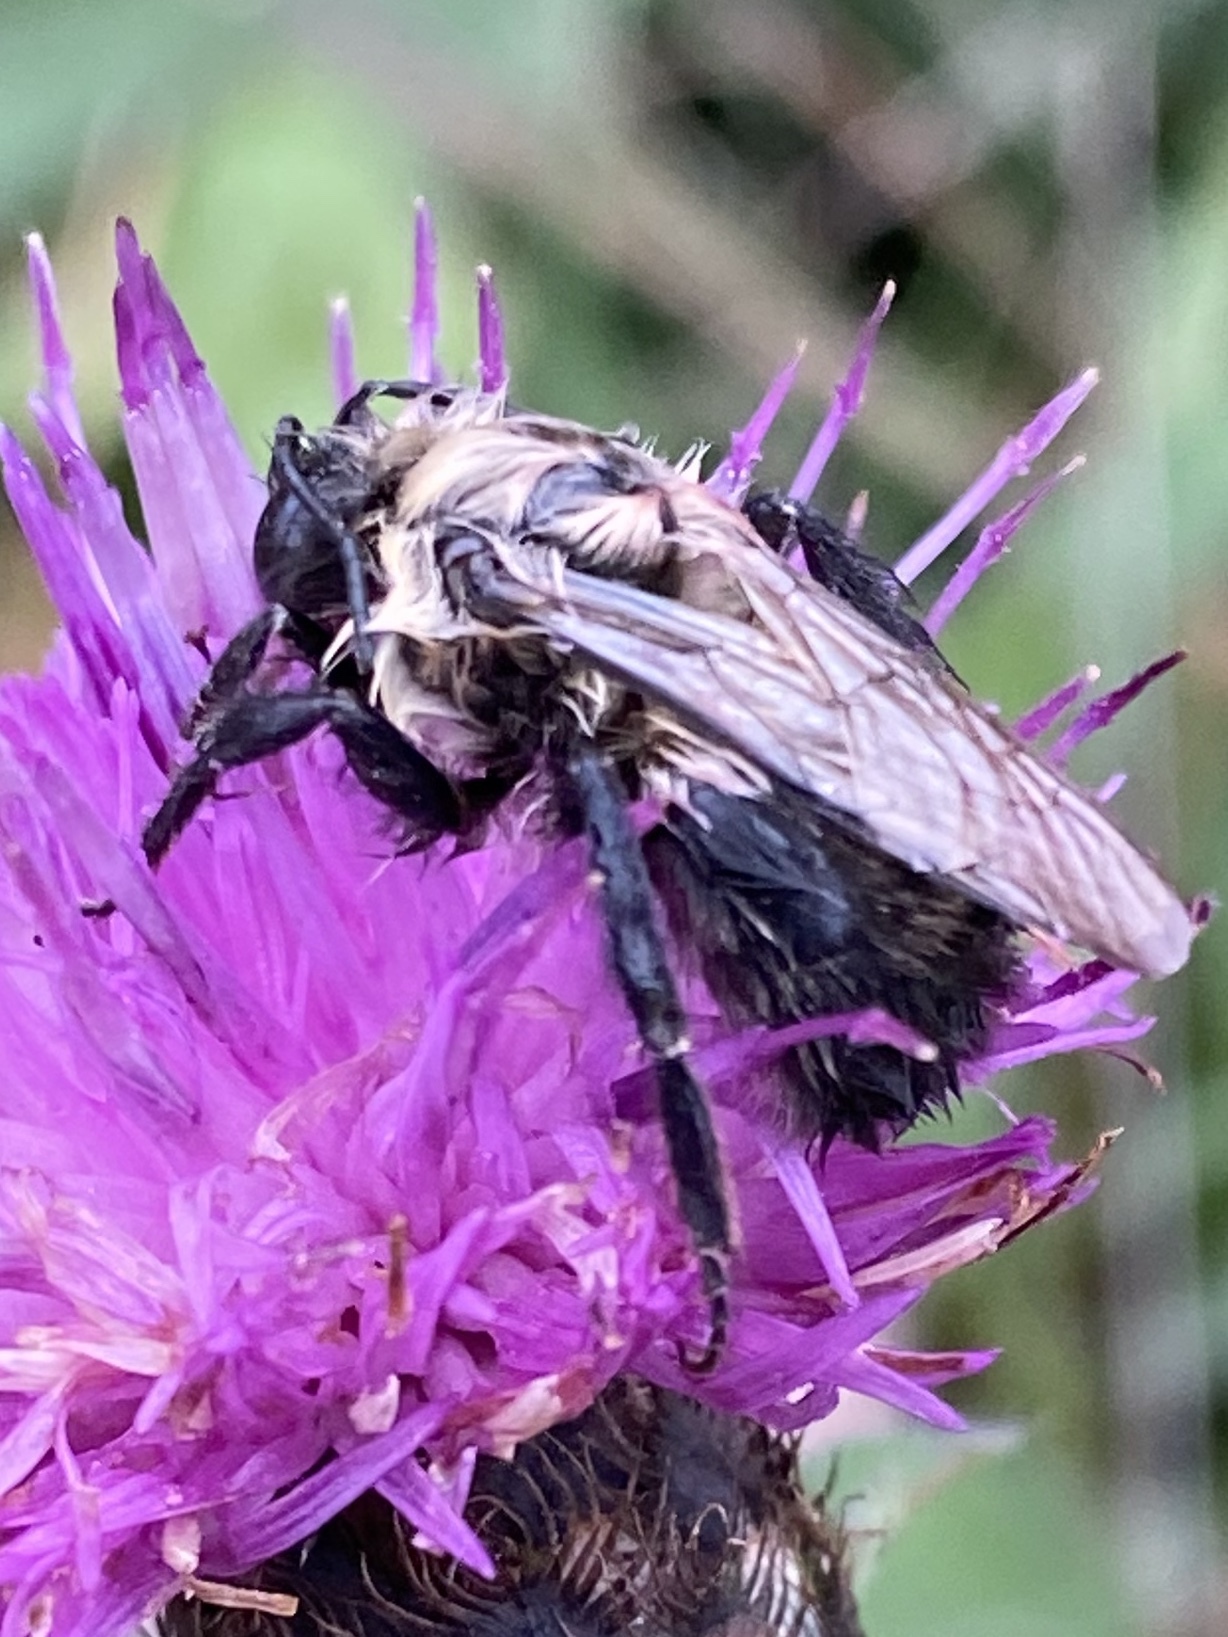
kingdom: Animalia
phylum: Arthropoda
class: Insecta
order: Hymenoptera
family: Apidae
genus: Bombus
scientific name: Bombus impatiens
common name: Common eastern bumble bee
